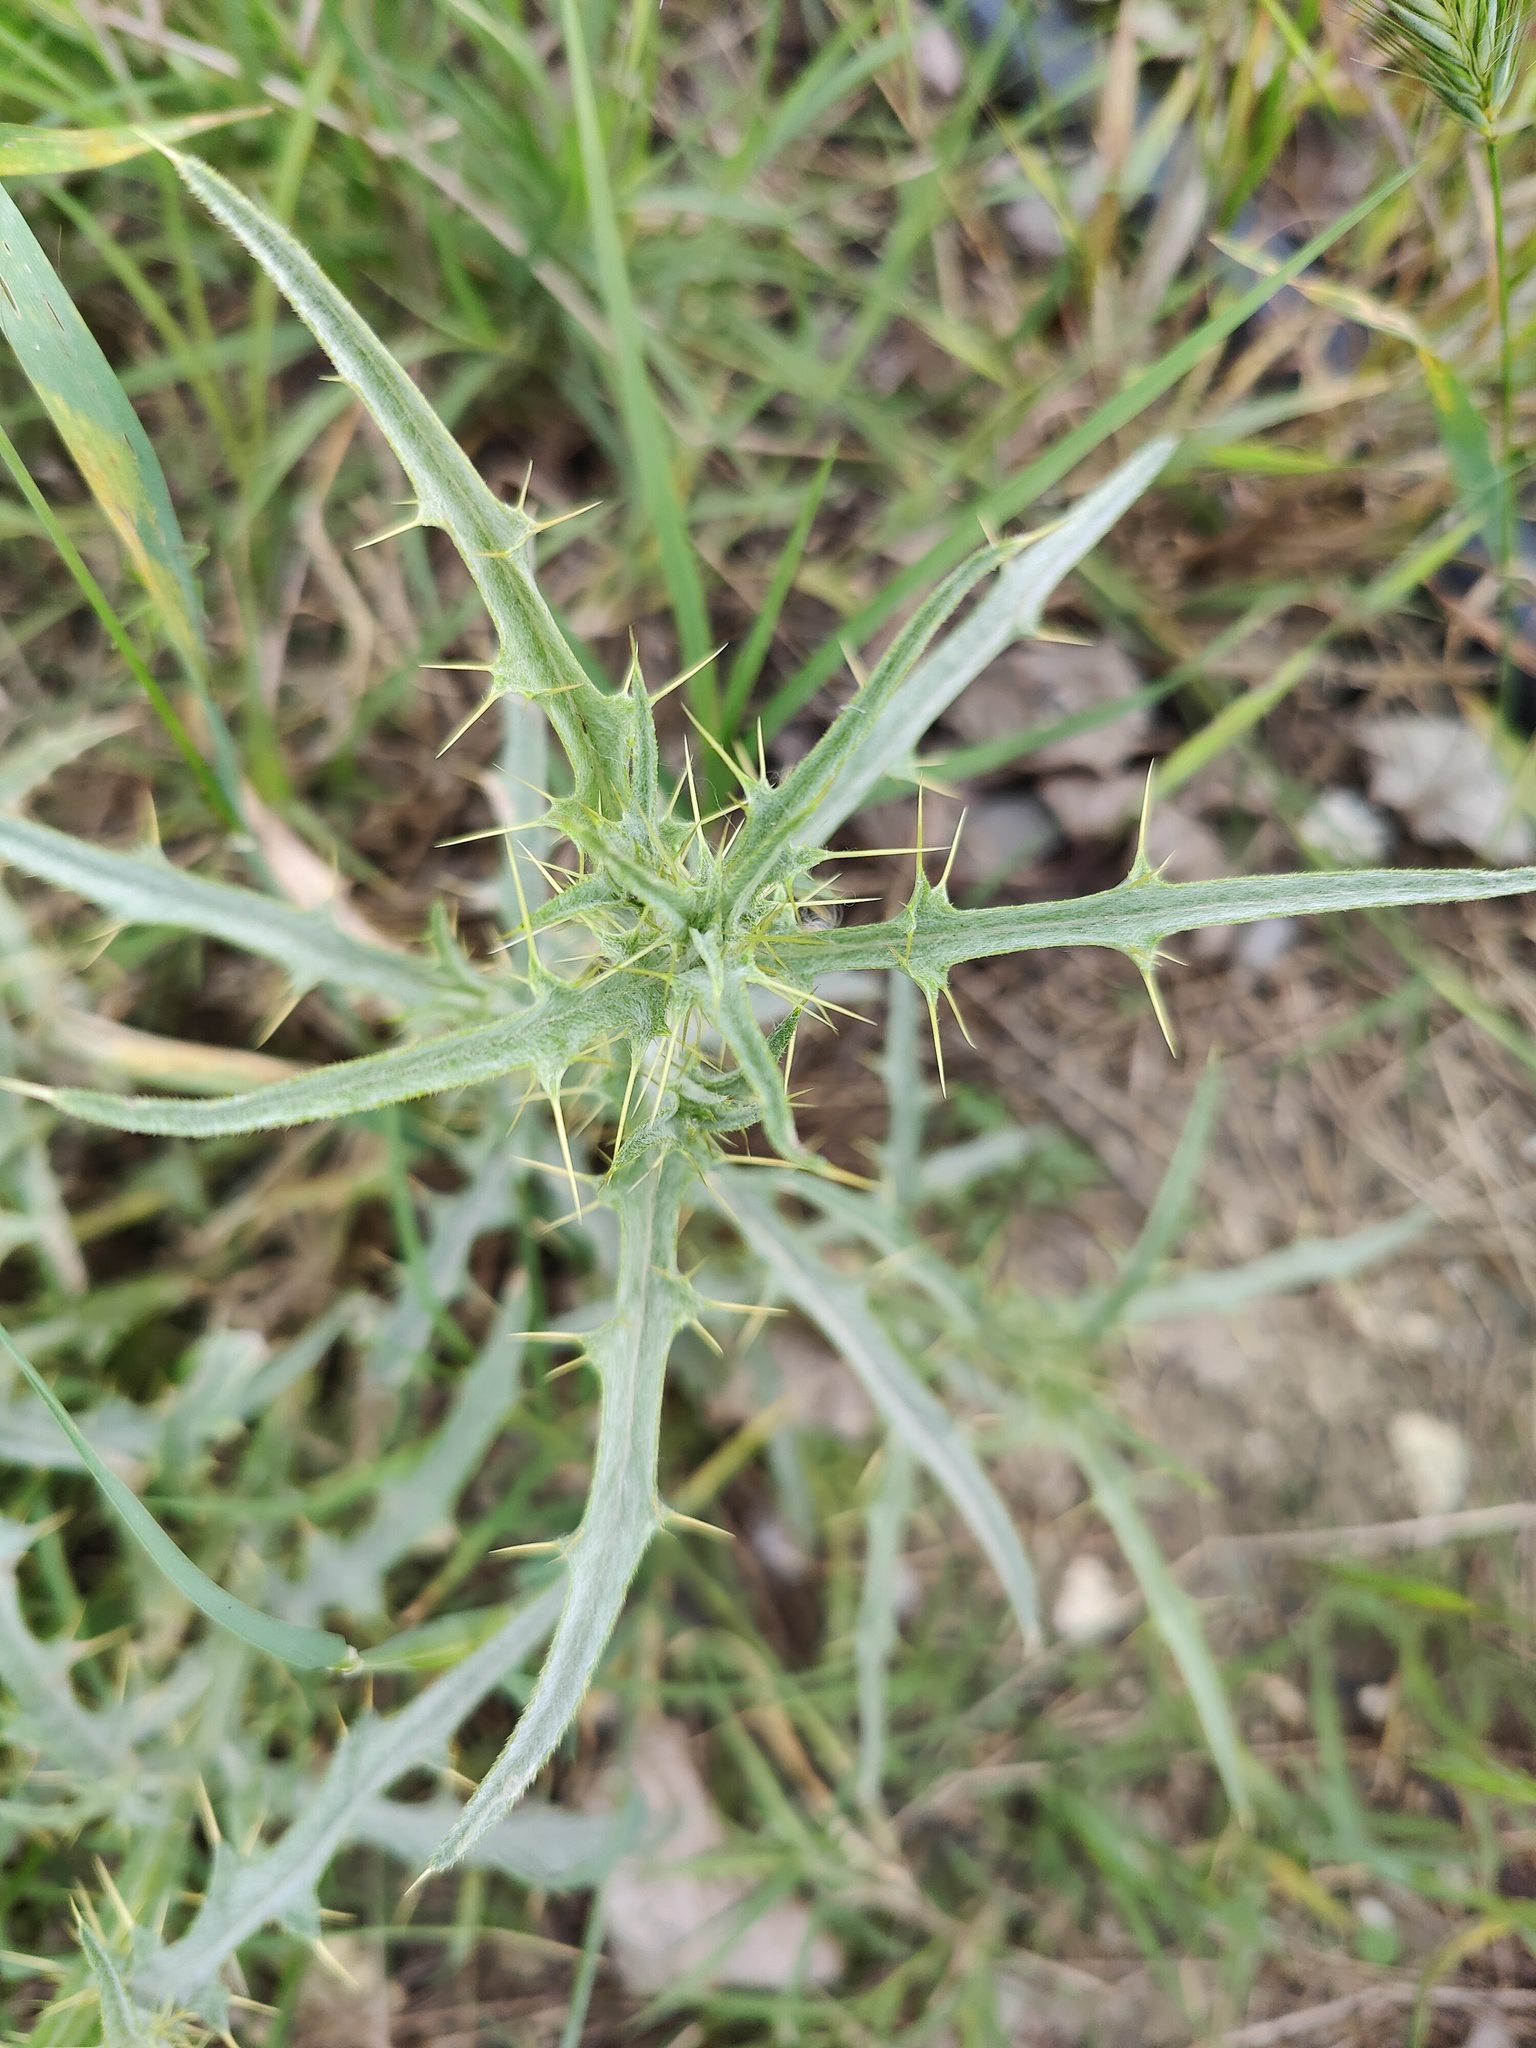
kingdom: Plantae
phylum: Tracheophyta
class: Magnoliopsida
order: Asterales
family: Asteraceae
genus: Picnomon
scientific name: Picnomon acarna
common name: Soldier thistle
